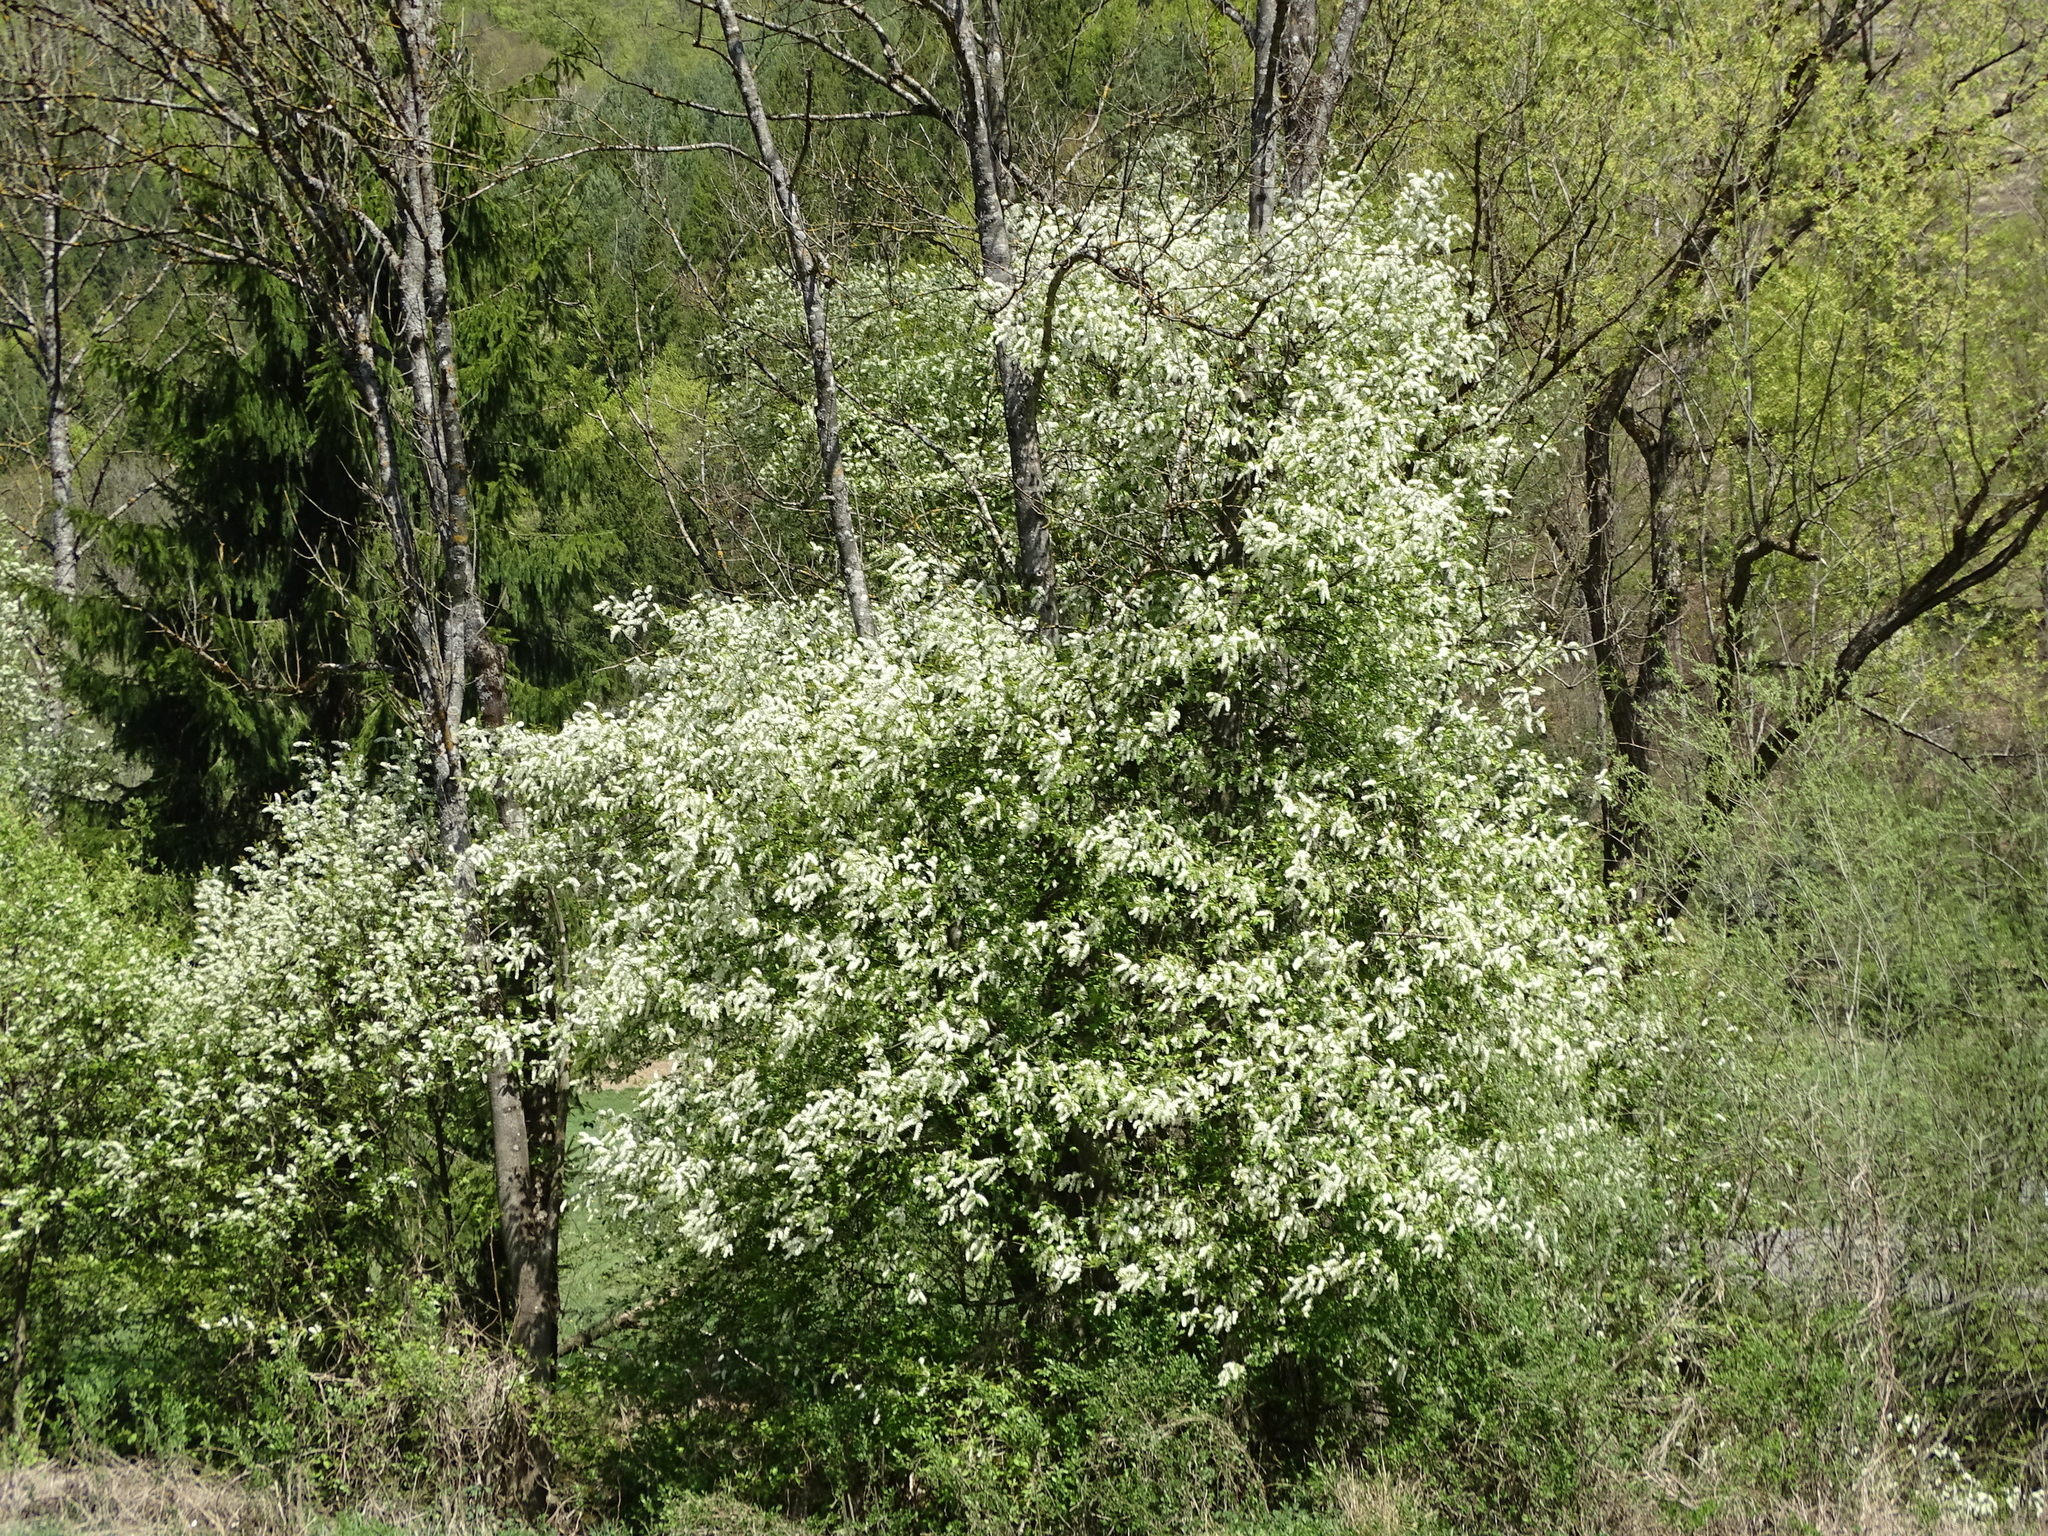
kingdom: Plantae
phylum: Tracheophyta
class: Magnoliopsida
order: Rosales
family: Rosaceae
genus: Prunus
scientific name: Prunus padus
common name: Bird cherry
